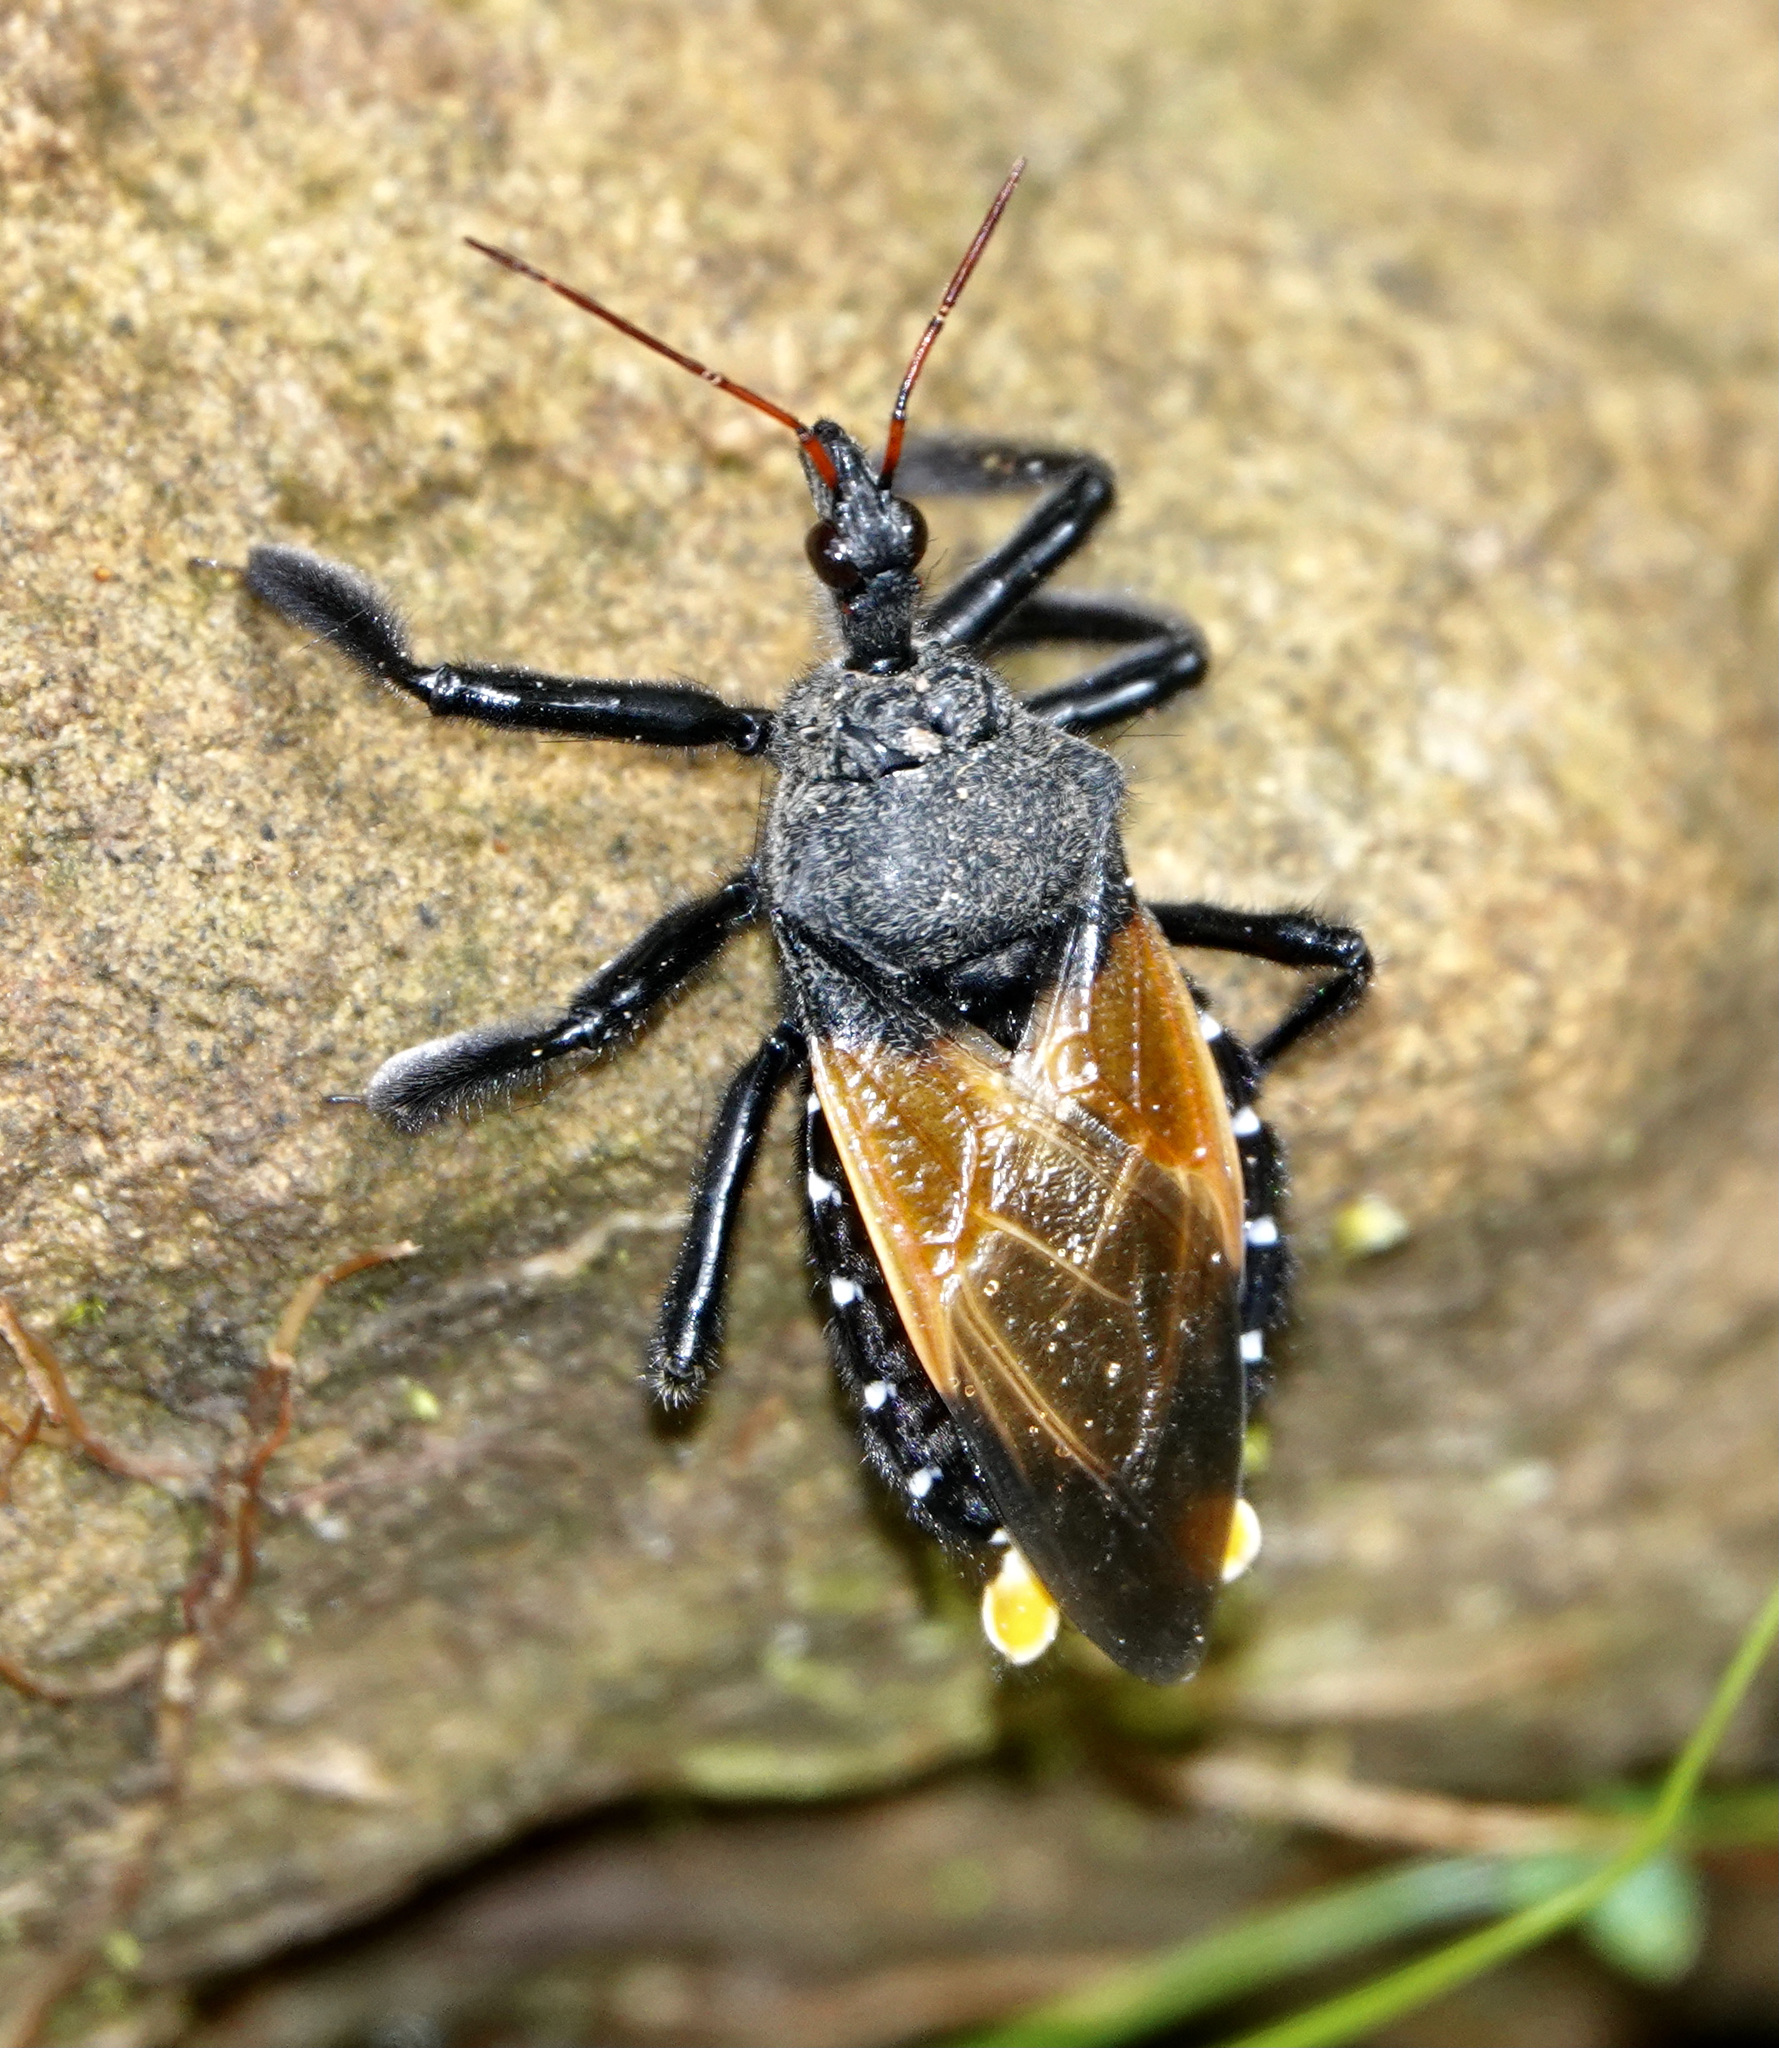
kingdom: Animalia
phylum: Arthropoda
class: Insecta
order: Hemiptera
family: Reduviidae
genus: Apiomerus
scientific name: Apiomerus gallegoi
